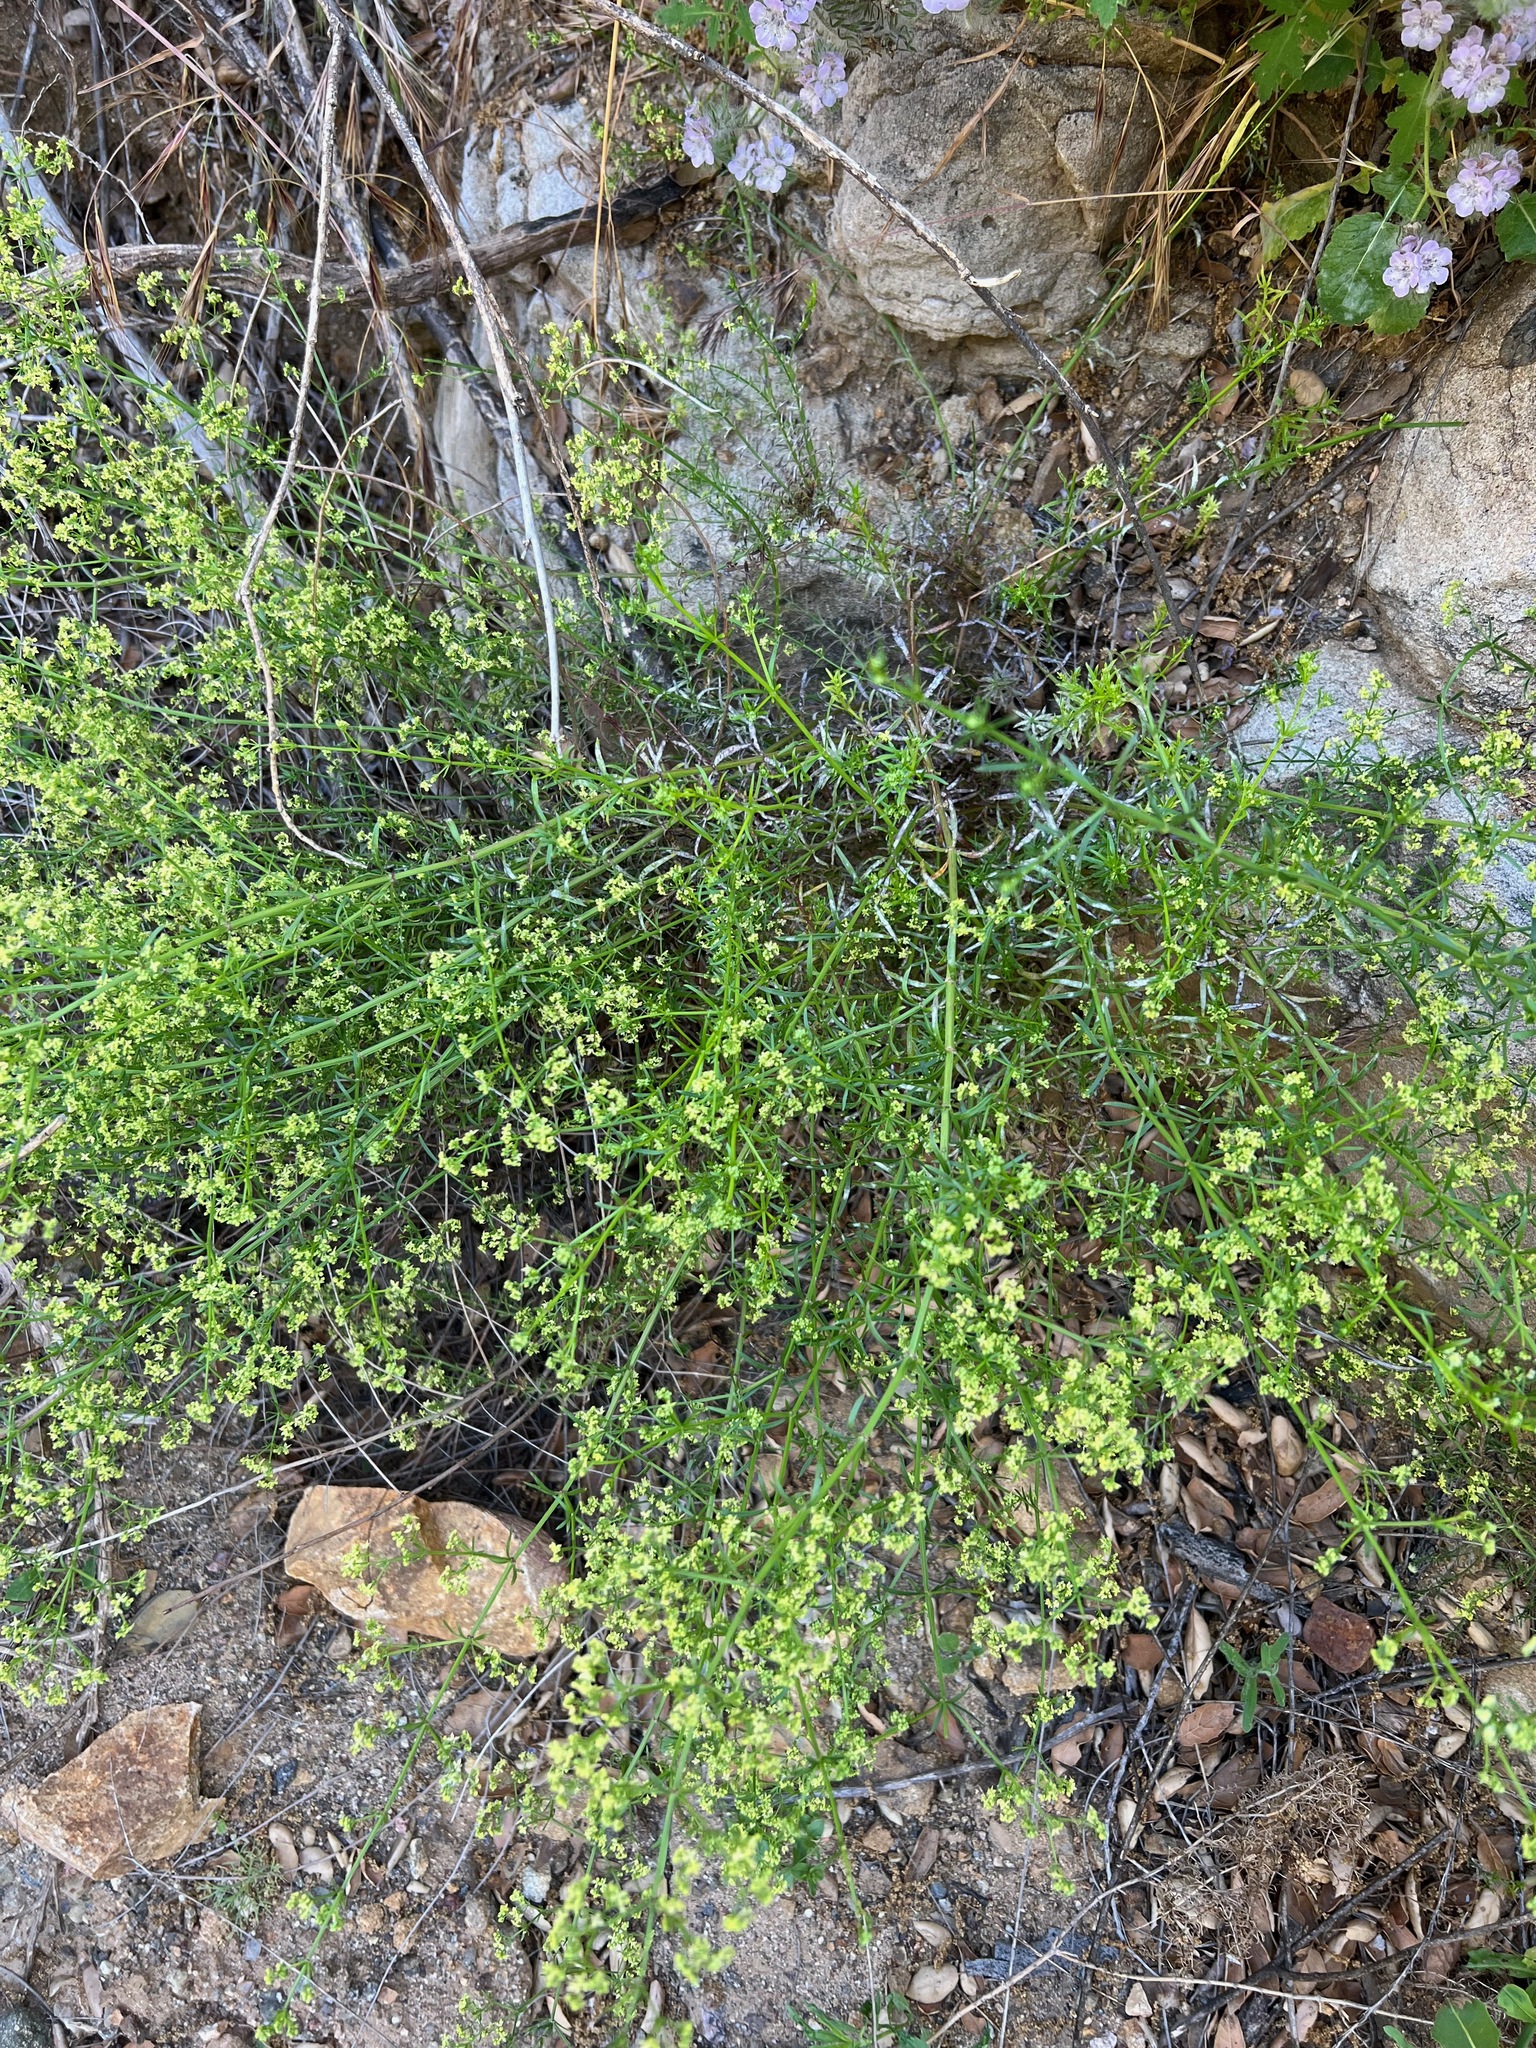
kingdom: Plantae
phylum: Tracheophyta
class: Magnoliopsida
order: Gentianales
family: Rubiaceae
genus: Galium
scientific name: Galium angustifolium
